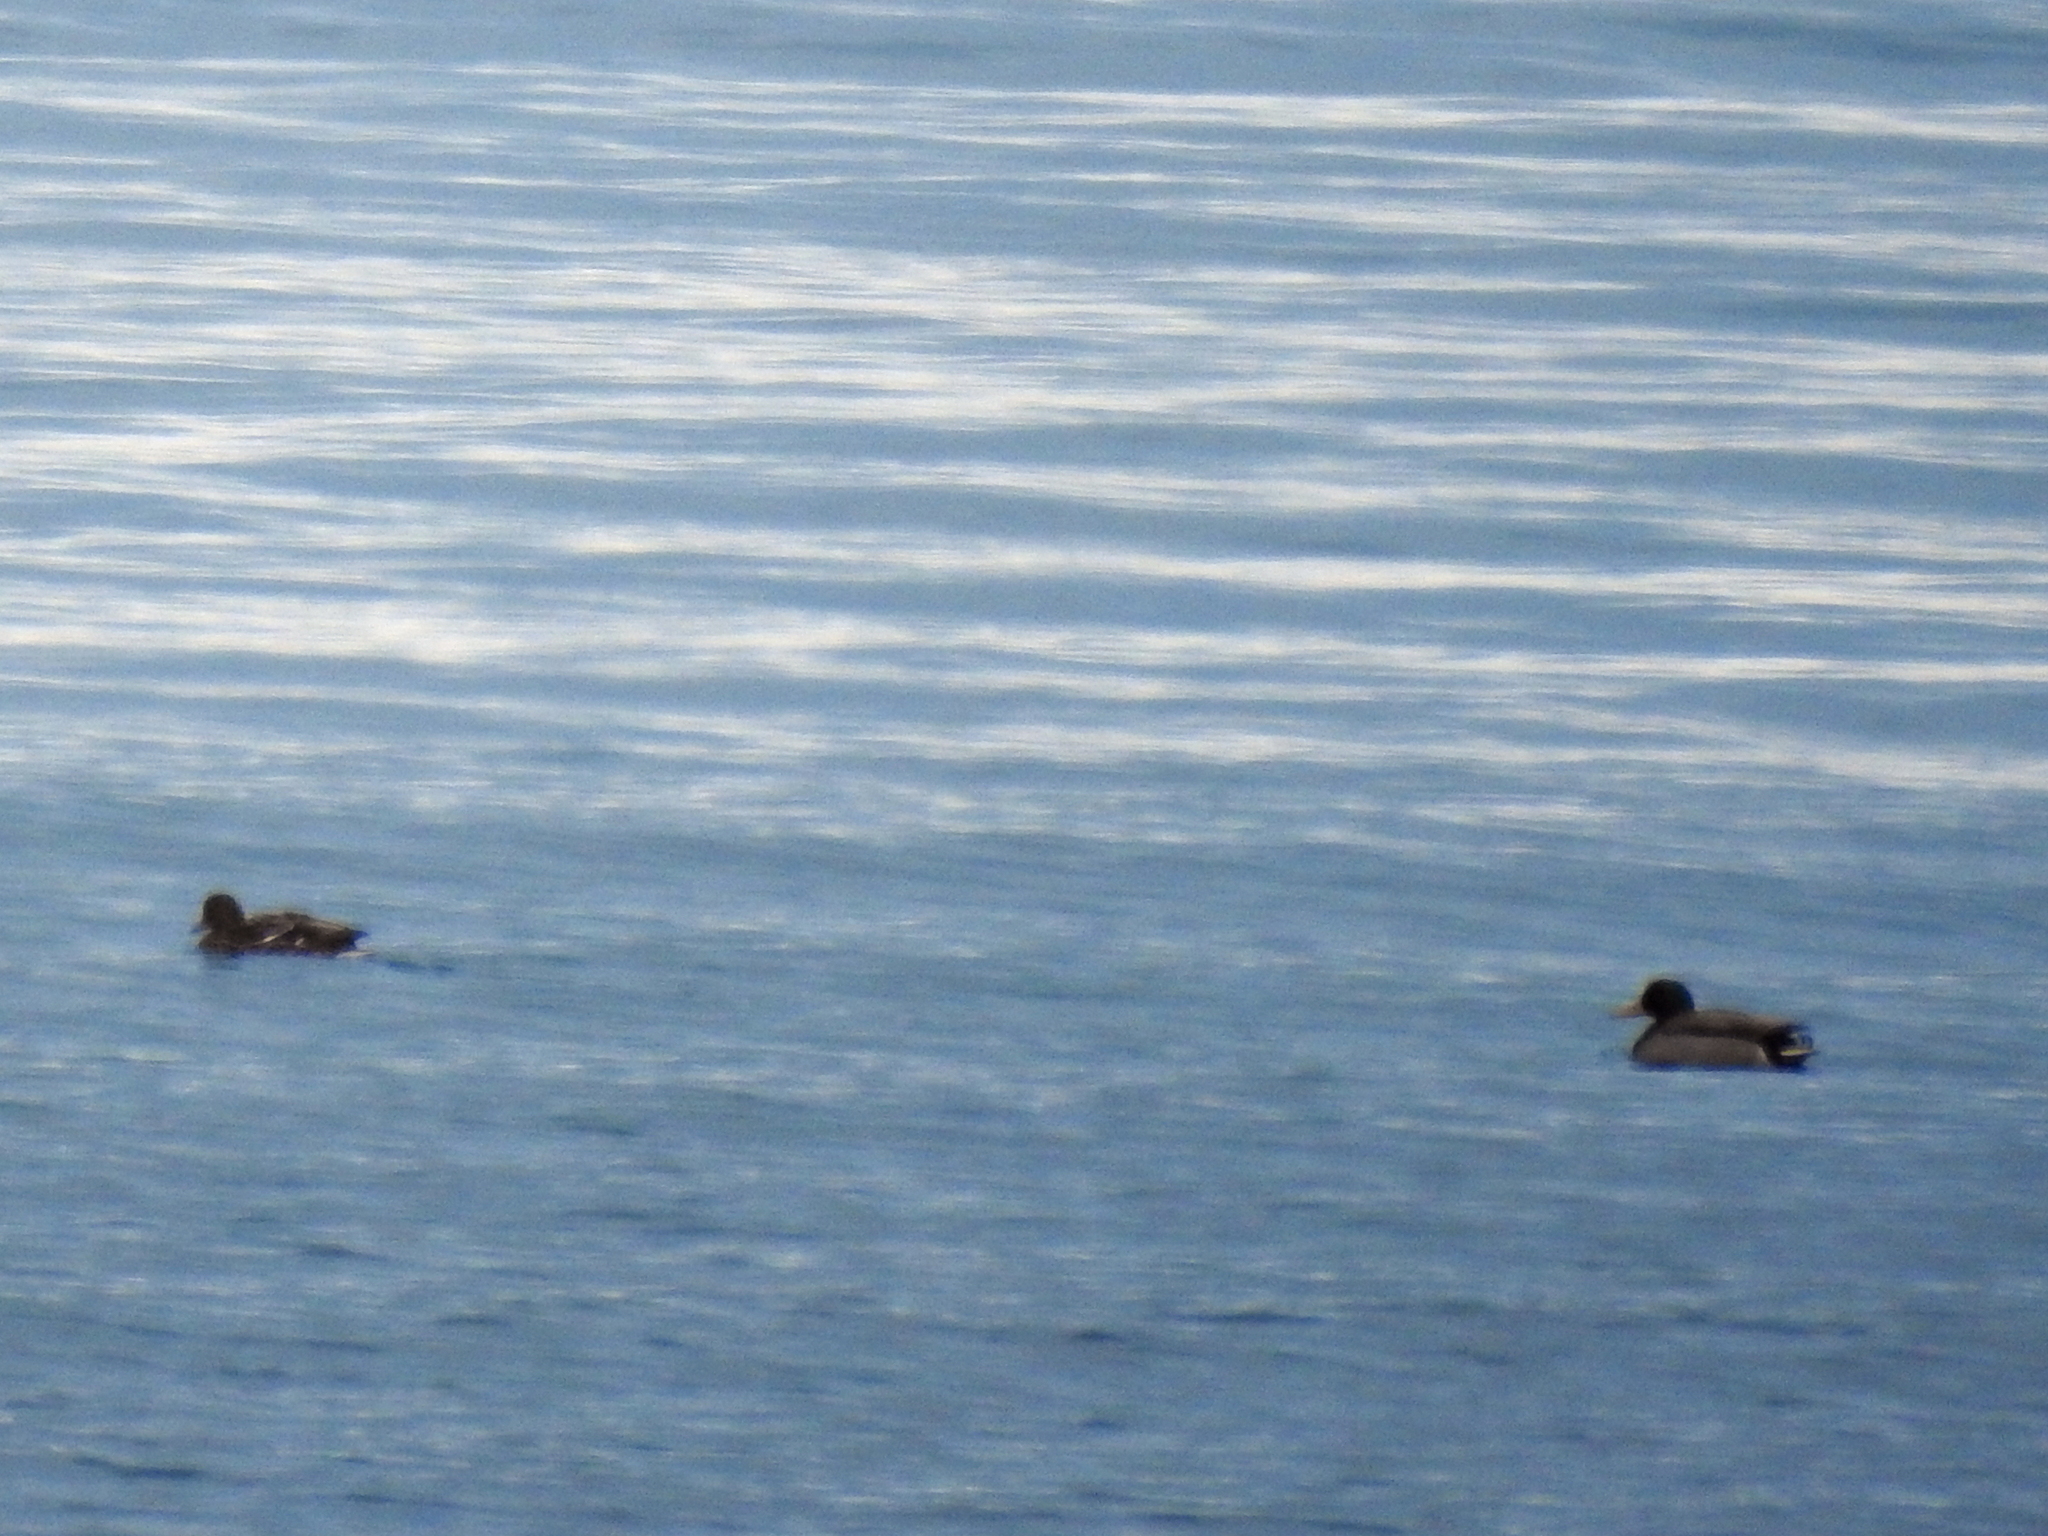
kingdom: Animalia
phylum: Chordata
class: Aves
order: Anseriformes
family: Anatidae
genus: Anas
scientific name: Anas platyrhynchos
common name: Mallard
